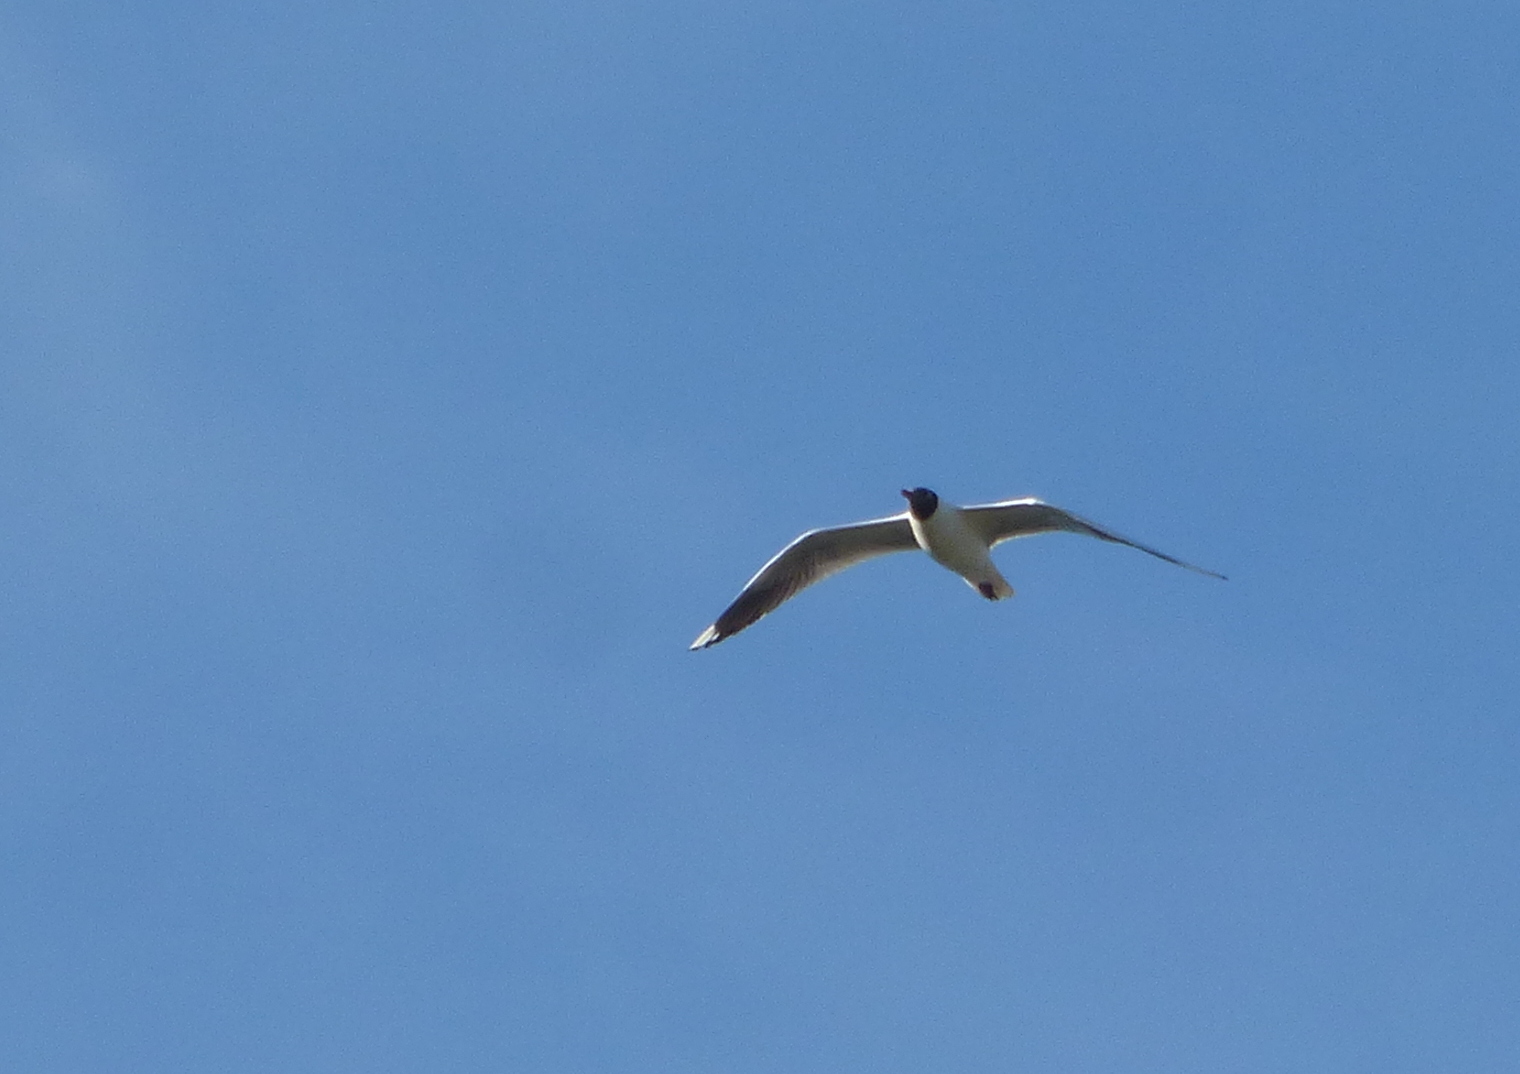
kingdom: Animalia
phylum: Chordata
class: Aves
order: Charadriiformes
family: Laridae
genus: Chroicocephalus
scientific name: Chroicocephalus maculipennis
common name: Brown-hooded gull
